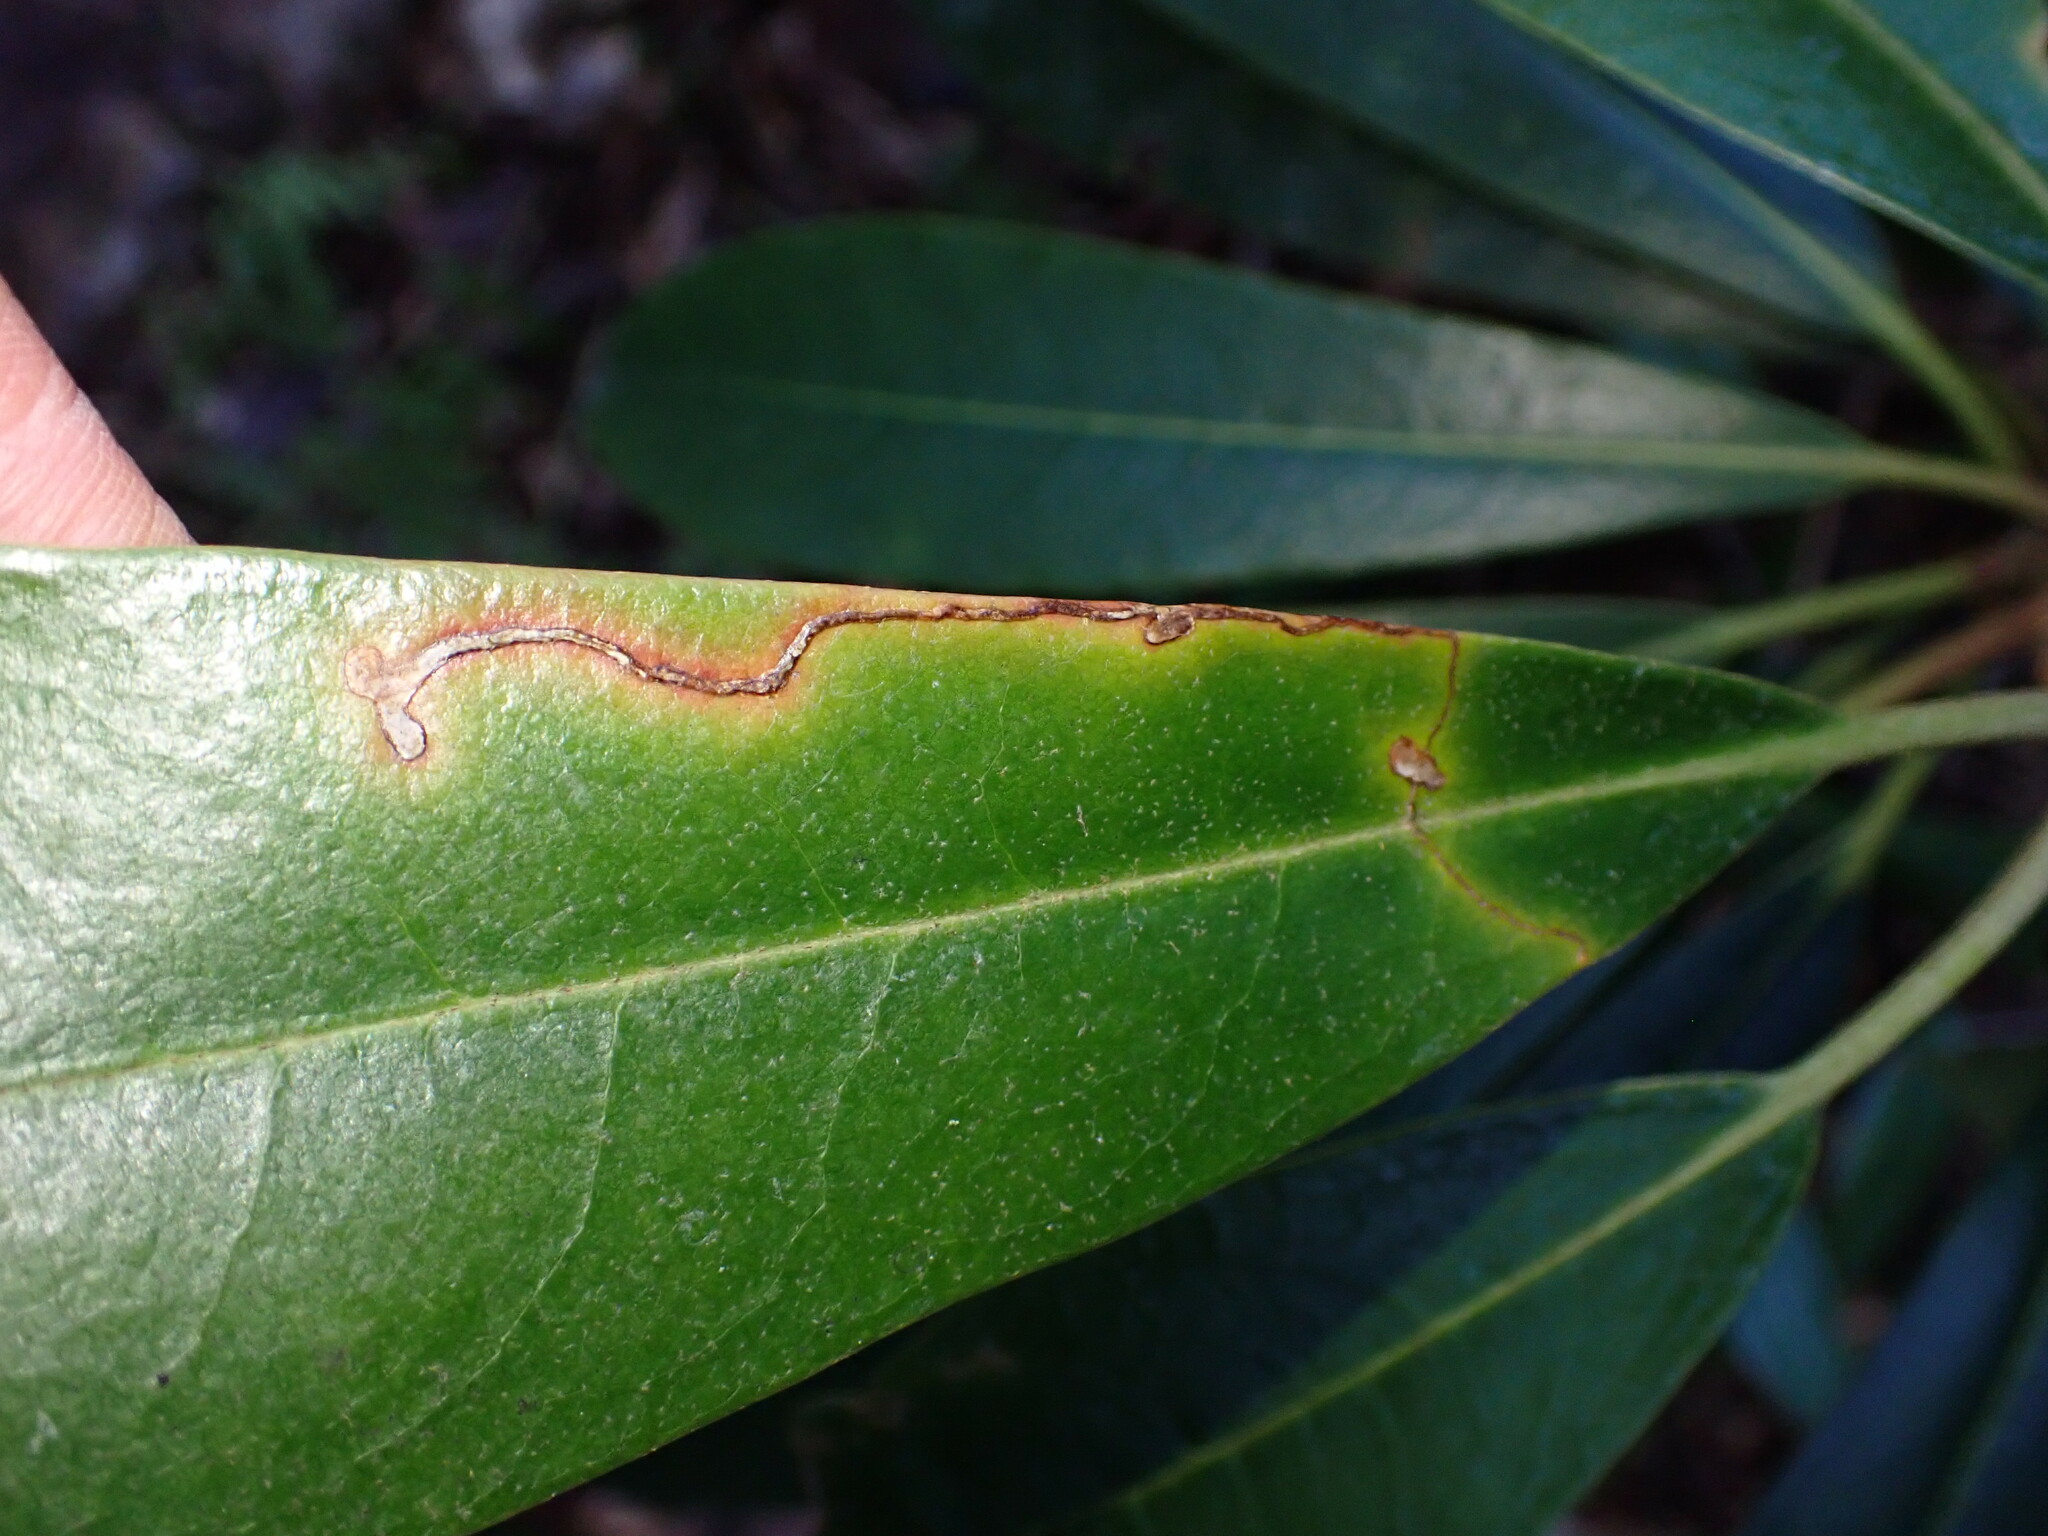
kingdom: Animalia
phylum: Arthropoda
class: Insecta
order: Lepidoptera
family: Lyonetiidae
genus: Lyonetia
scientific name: Lyonetia
